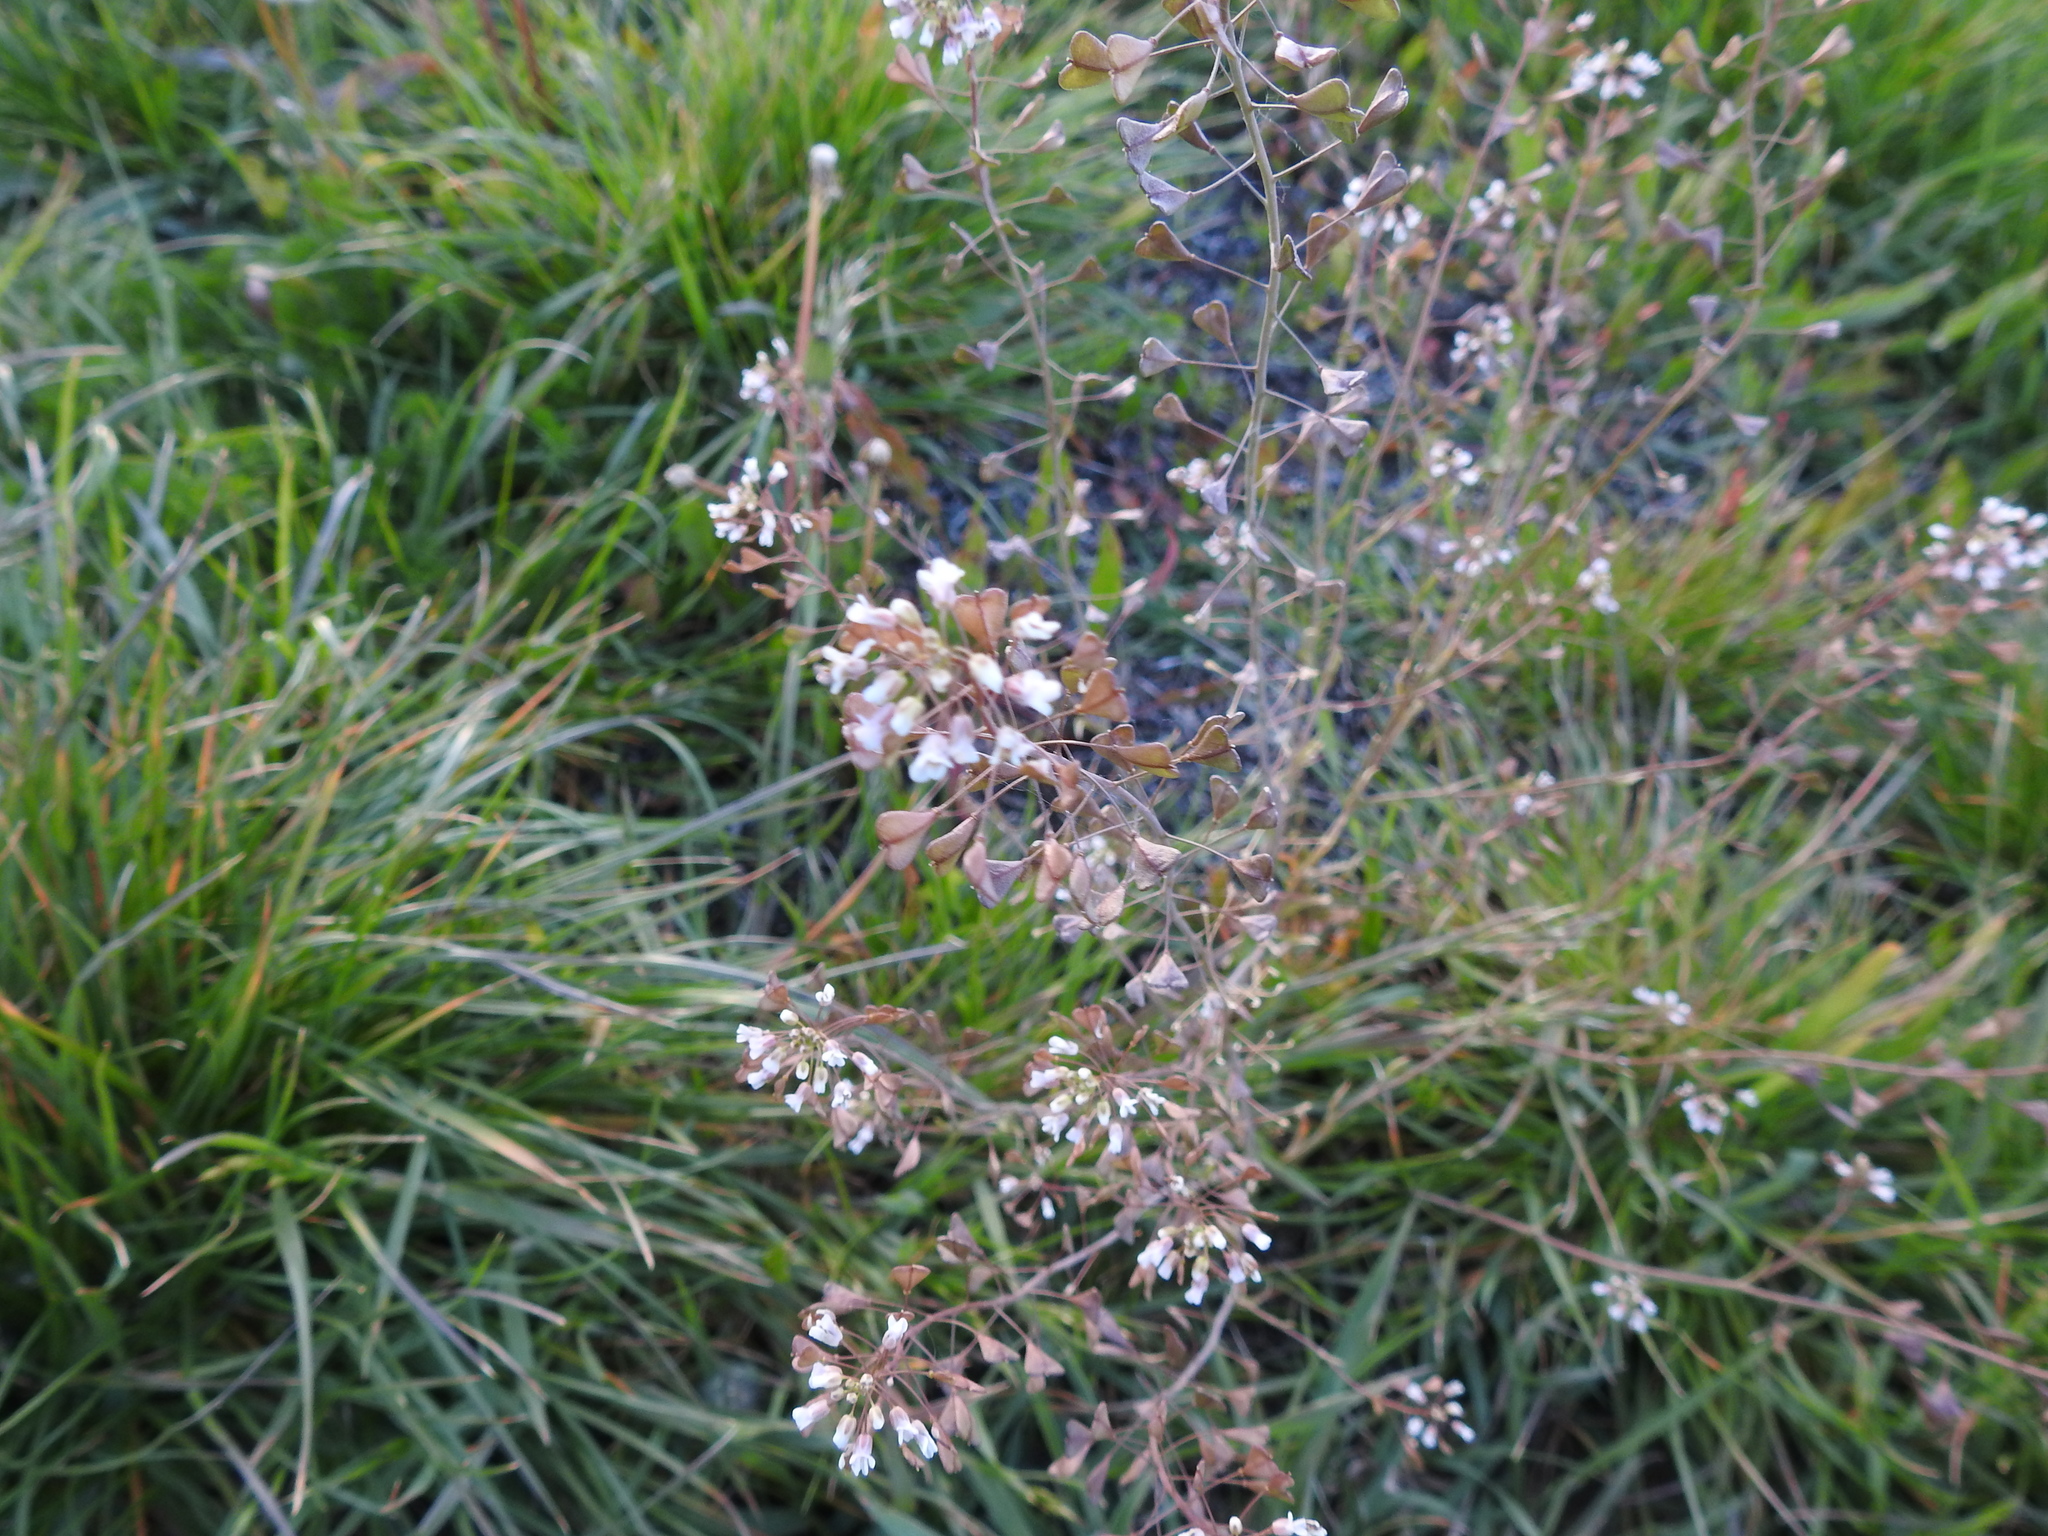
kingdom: Plantae
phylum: Tracheophyta
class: Magnoliopsida
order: Brassicales
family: Brassicaceae
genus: Capsella
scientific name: Capsella bursa-pastoris
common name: Shepherd's purse
